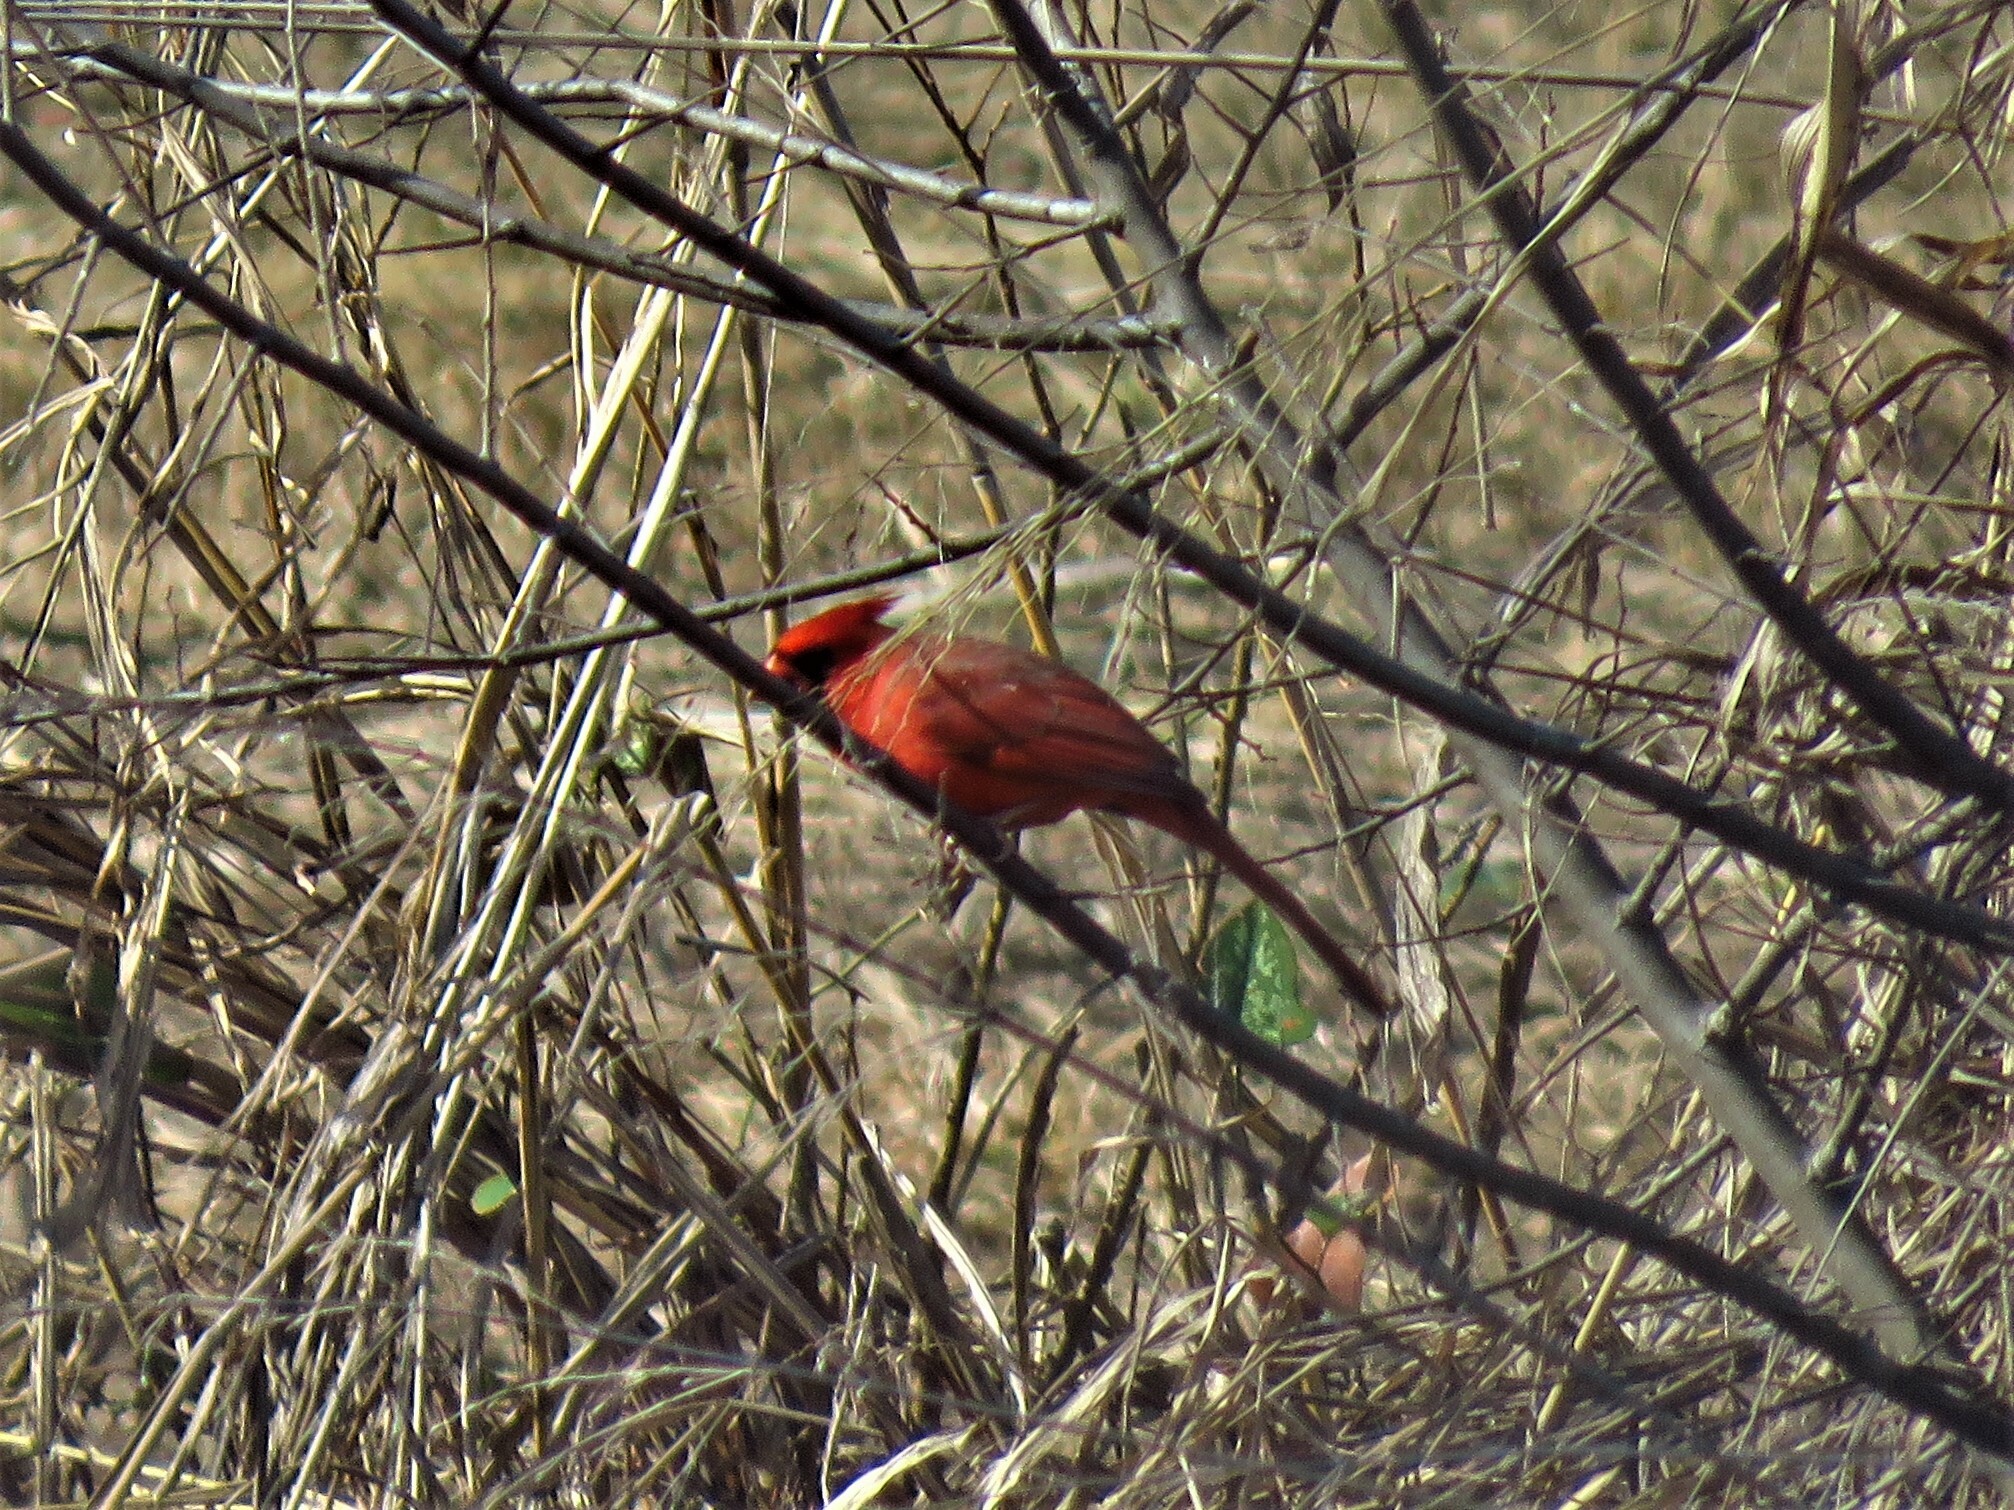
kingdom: Animalia
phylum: Chordata
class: Aves
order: Passeriformes
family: Cardinalidae
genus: Cardinalis
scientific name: Cardinalis cardinalis
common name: Northern cardinal
